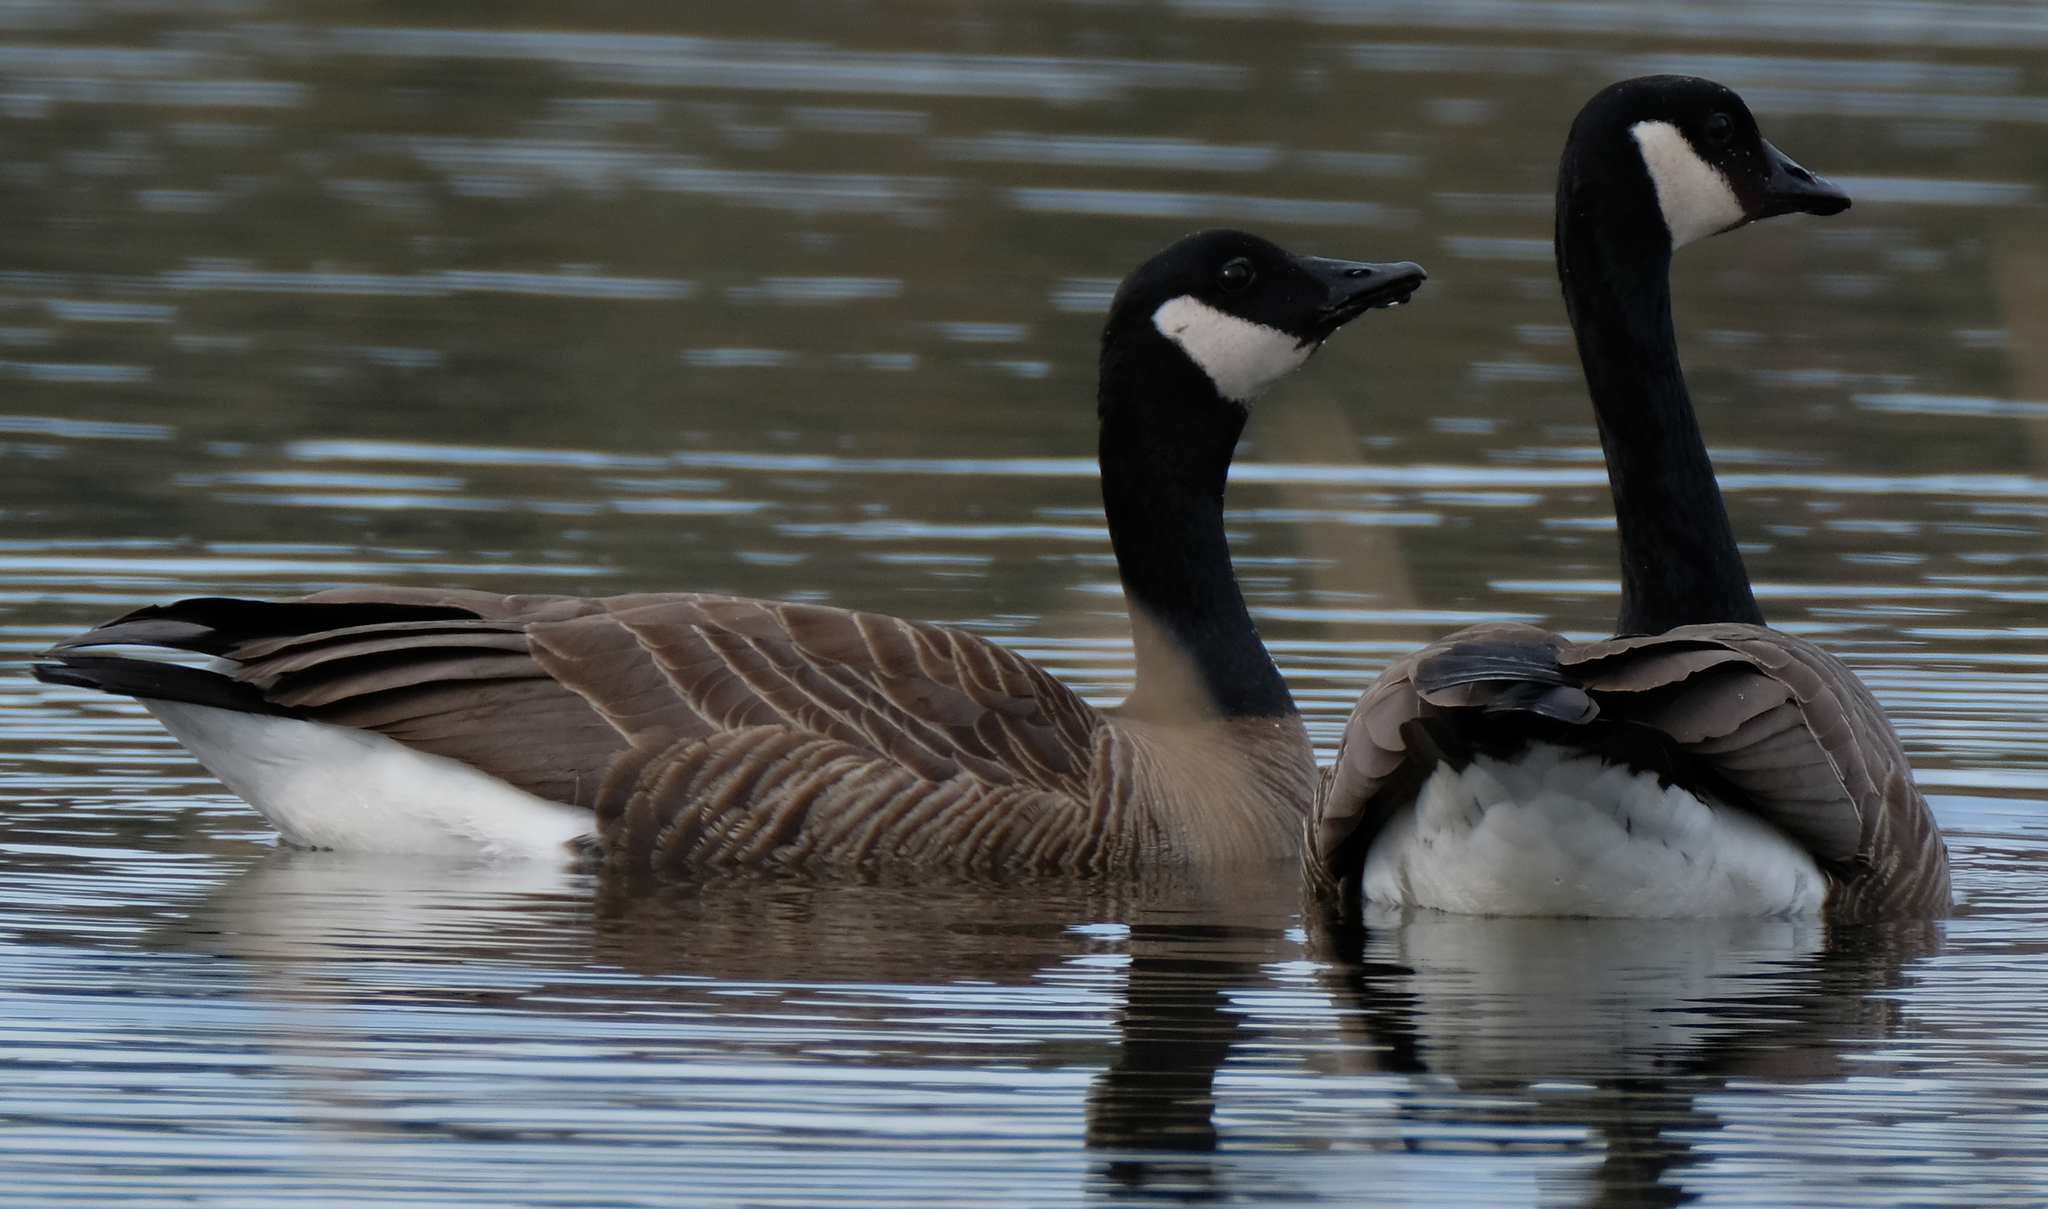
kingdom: Animalia
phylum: Chordata
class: Aves
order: Anseriformes
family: Anatidae
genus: Branta
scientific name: Branta canadensis
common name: Canada goose
